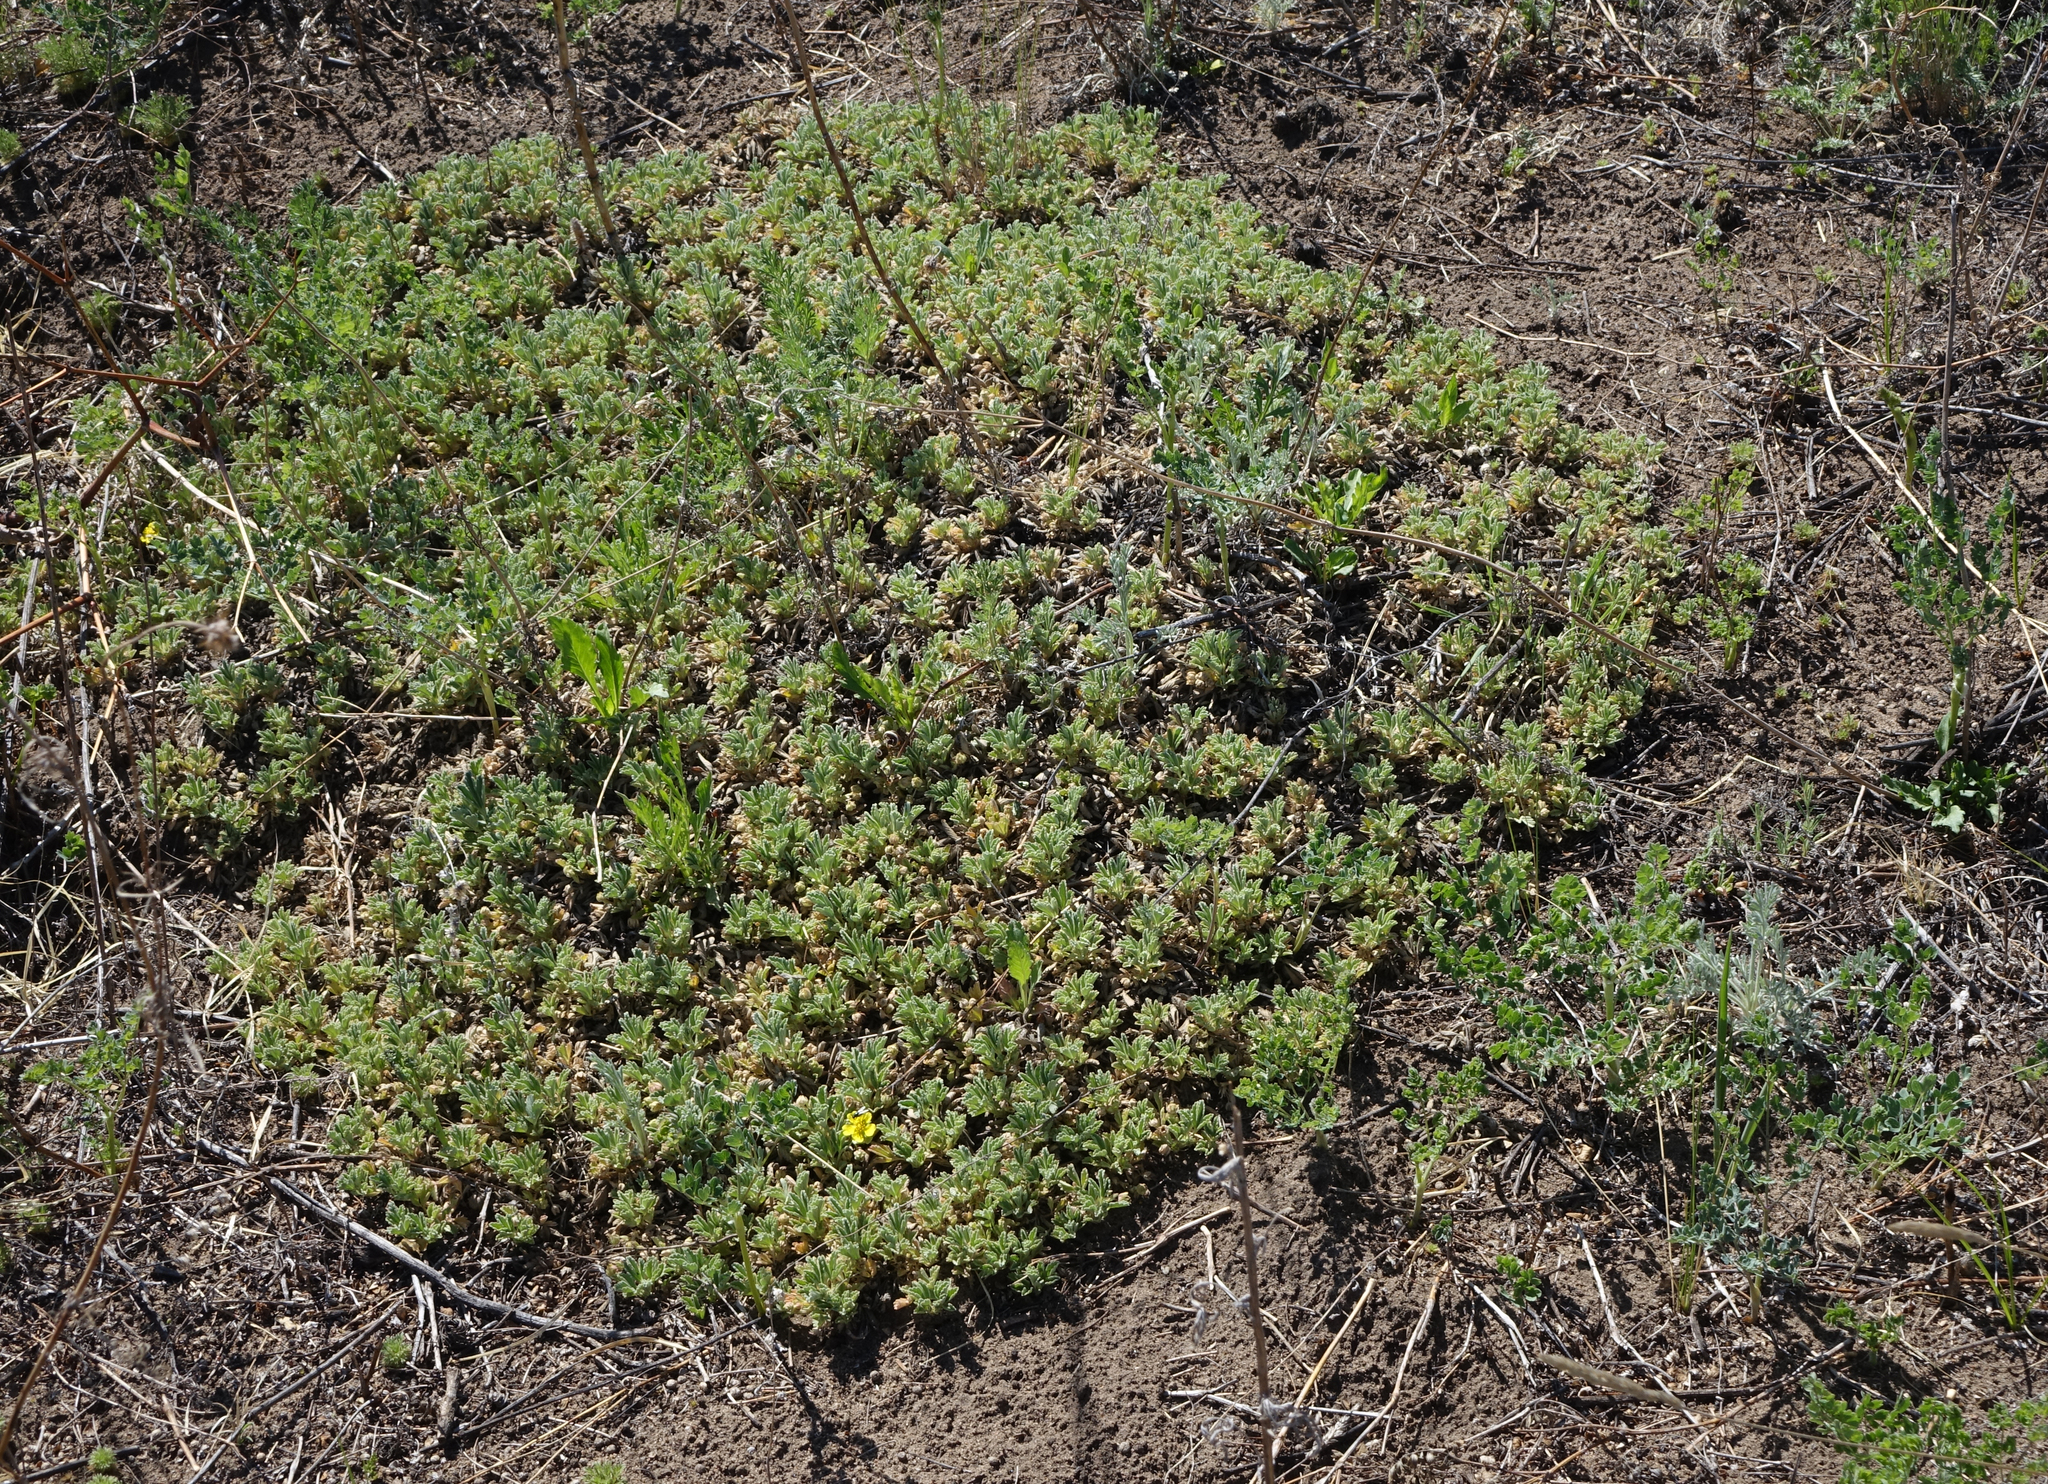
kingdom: Plantae
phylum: Tracheophyta
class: Magnoliopsida
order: Rosales
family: Rosaceae
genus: Potentilla
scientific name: Potentilla acaulis
